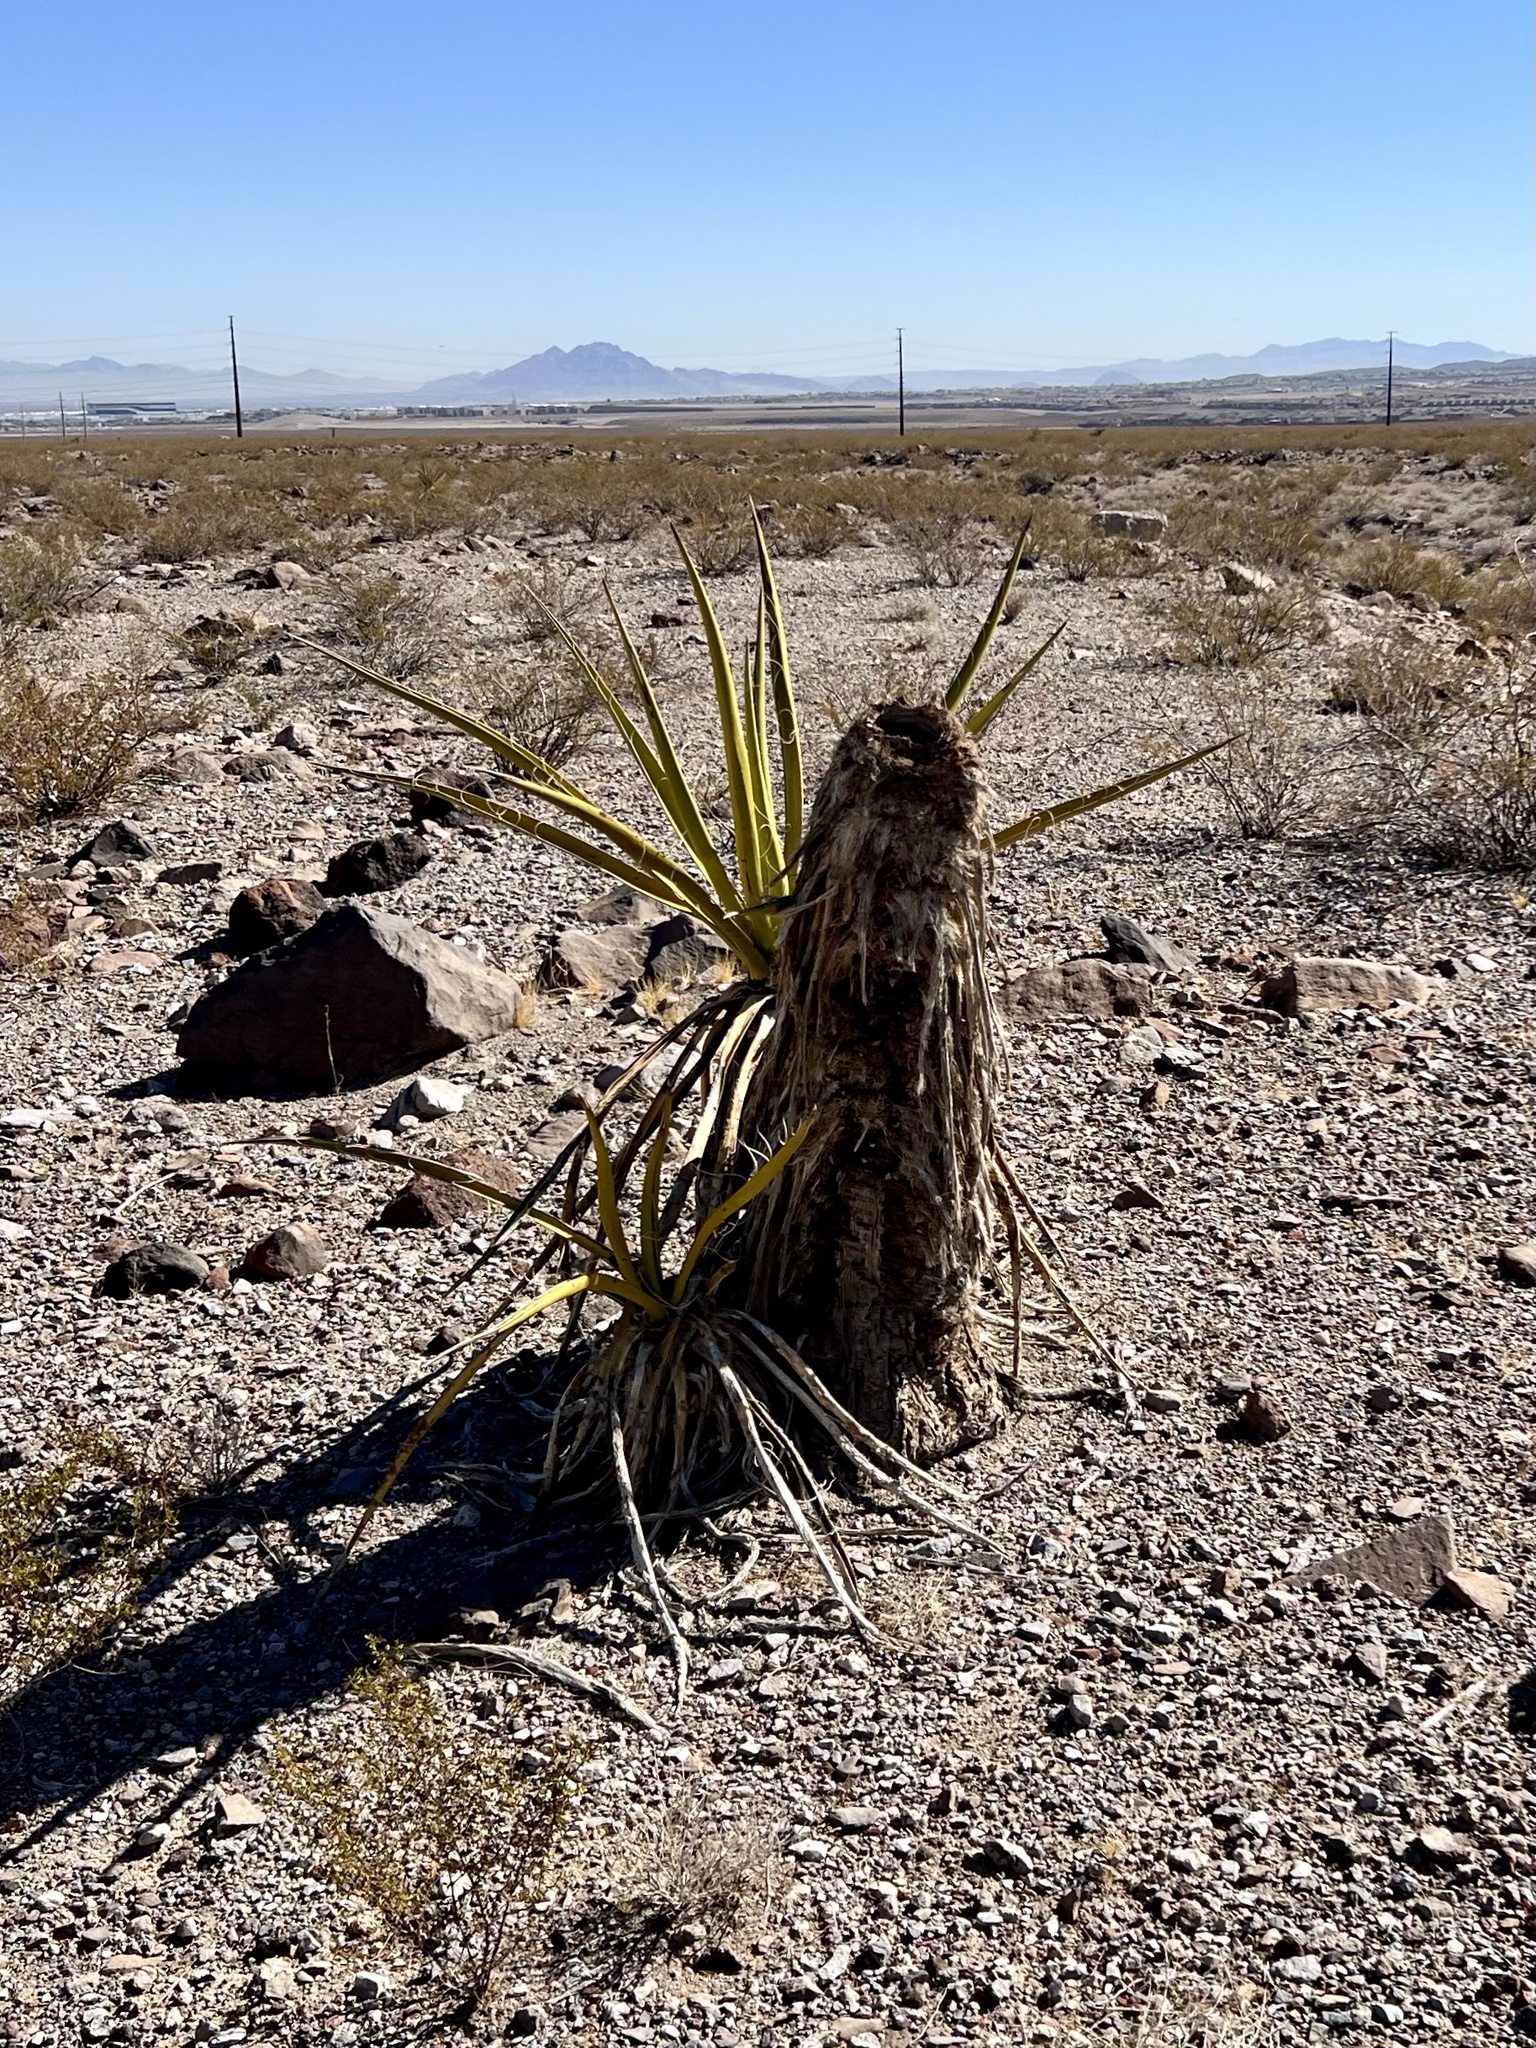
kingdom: Plantae
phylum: Tracheophyta
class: Liliopsida
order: Asparagales
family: Asparagaceae
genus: Yucca
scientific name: Yucca schidigera
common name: Mojave yucca
